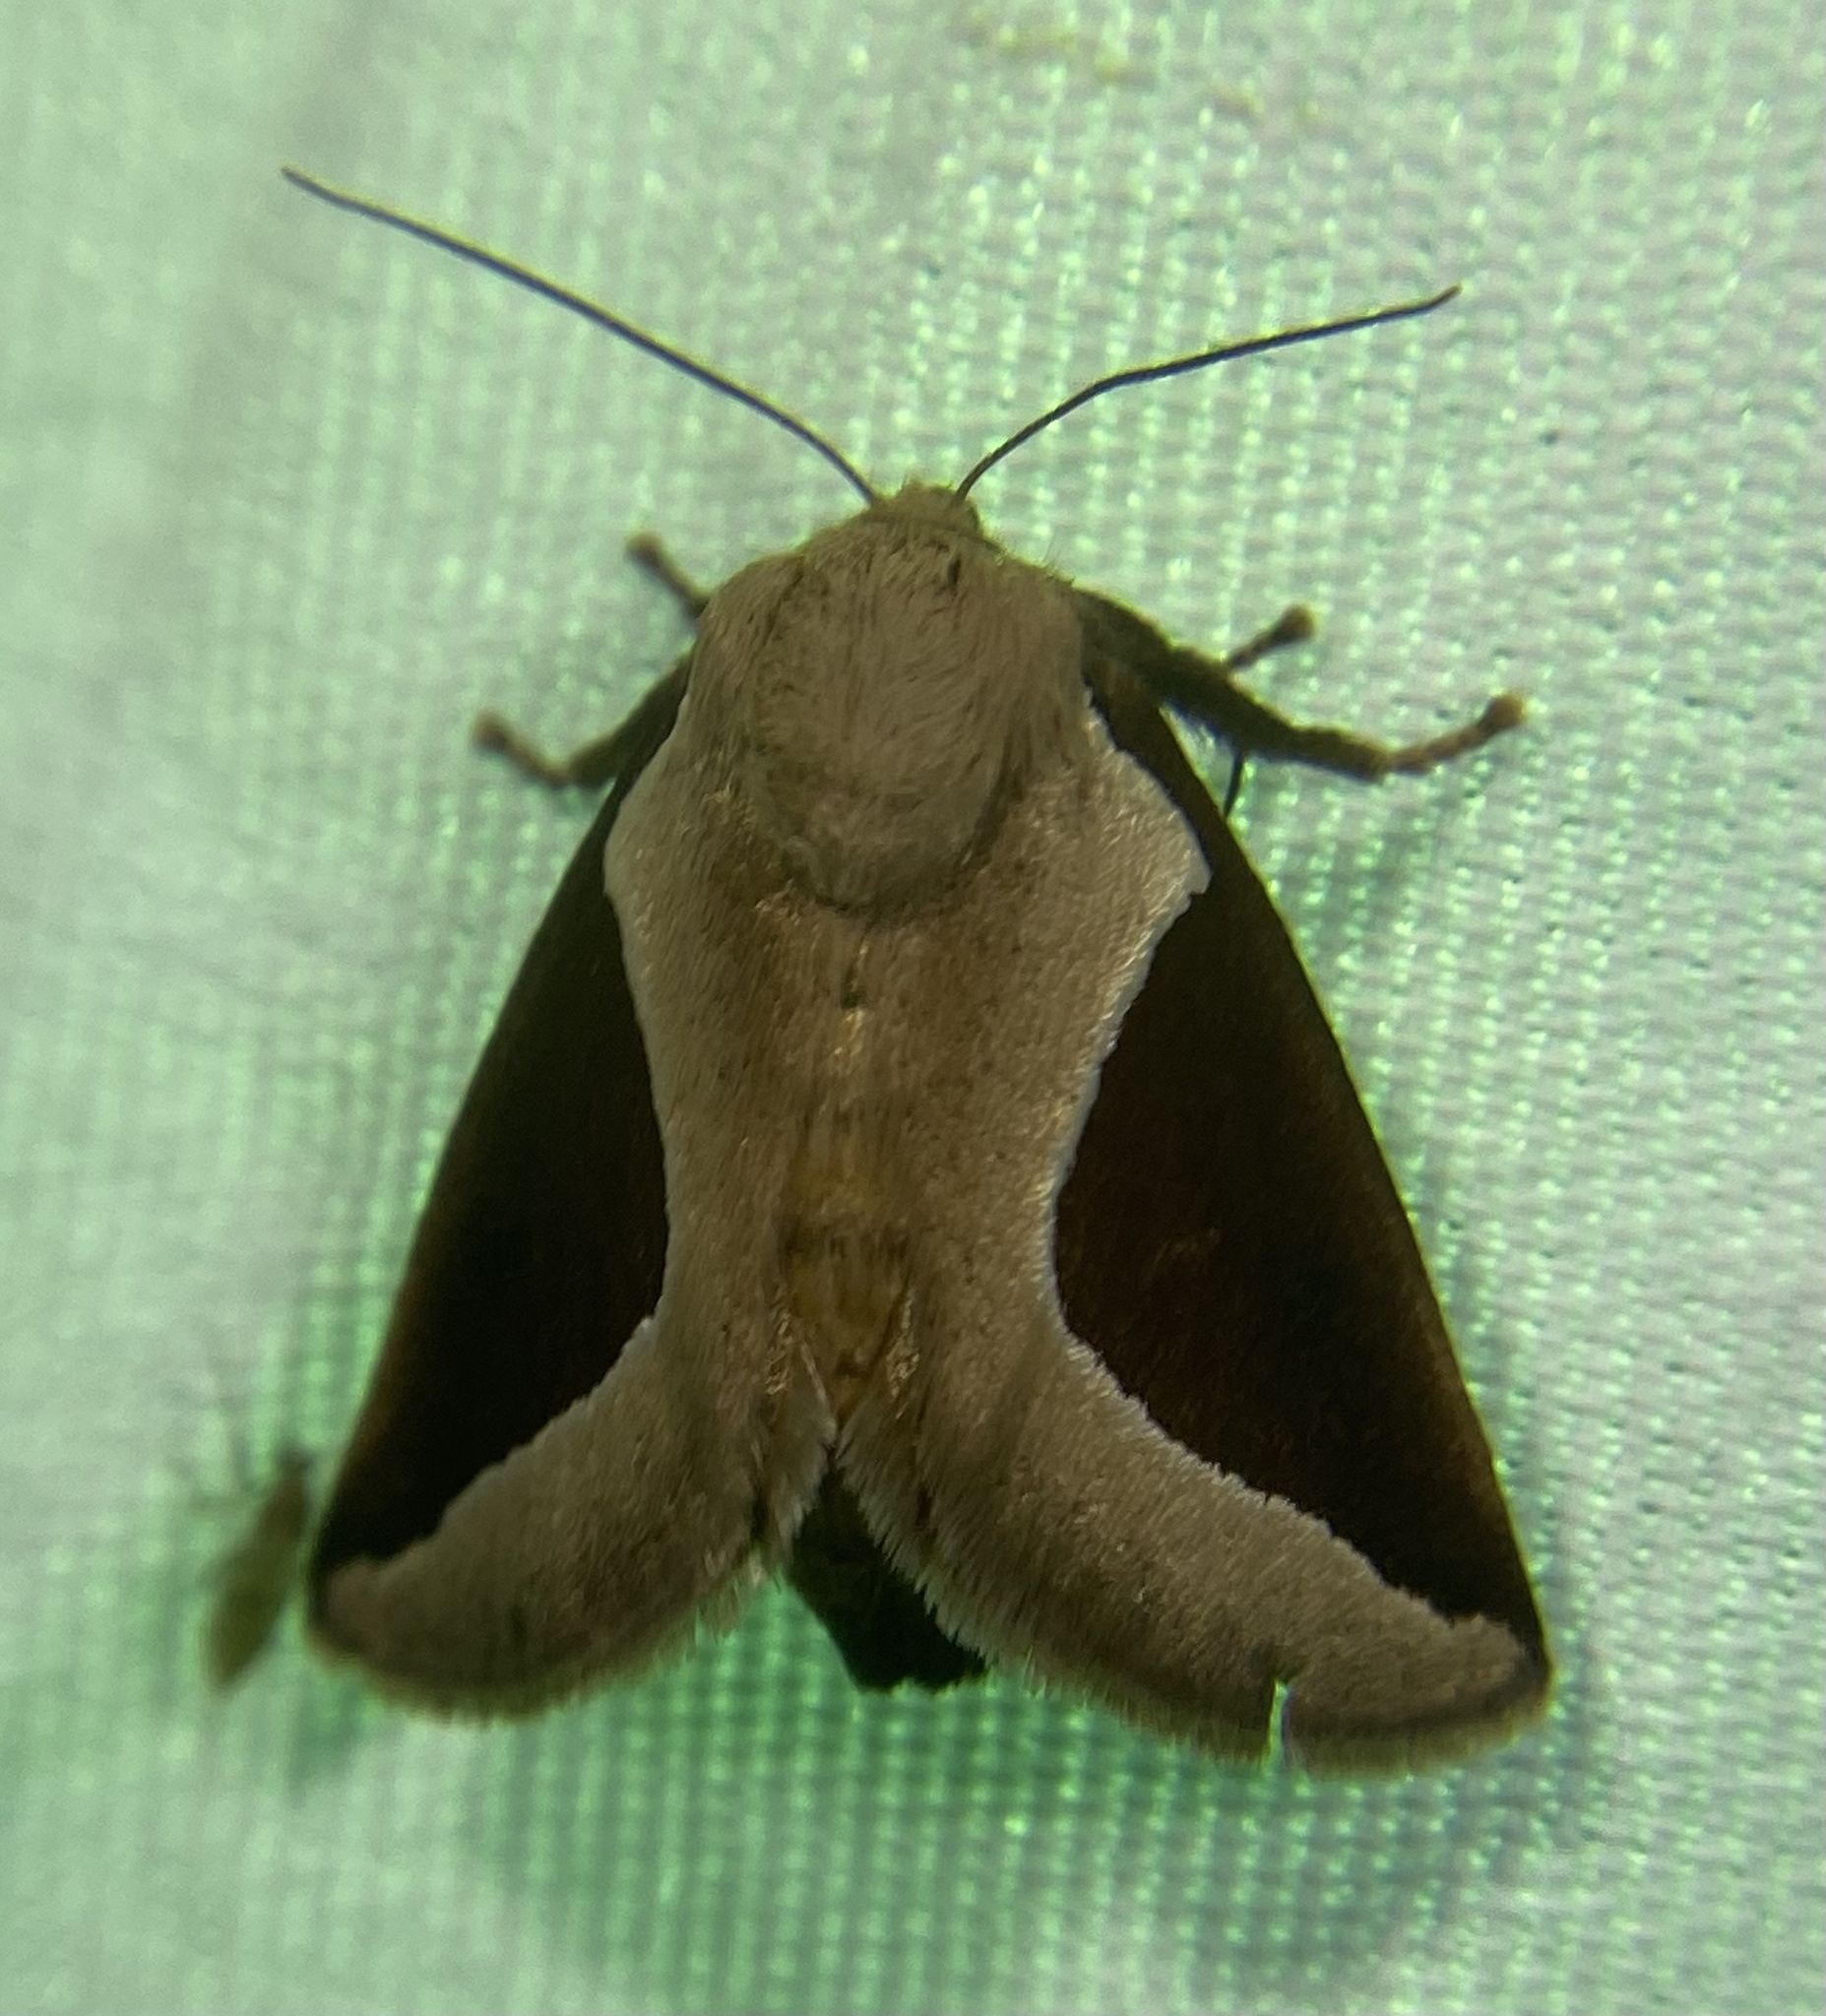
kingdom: Animalia
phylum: Arthropoda
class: Insecta
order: Lepidoptera
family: Limacodidae
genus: Prolimacodes
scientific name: Prolimacodes badia
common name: Skiff moth
